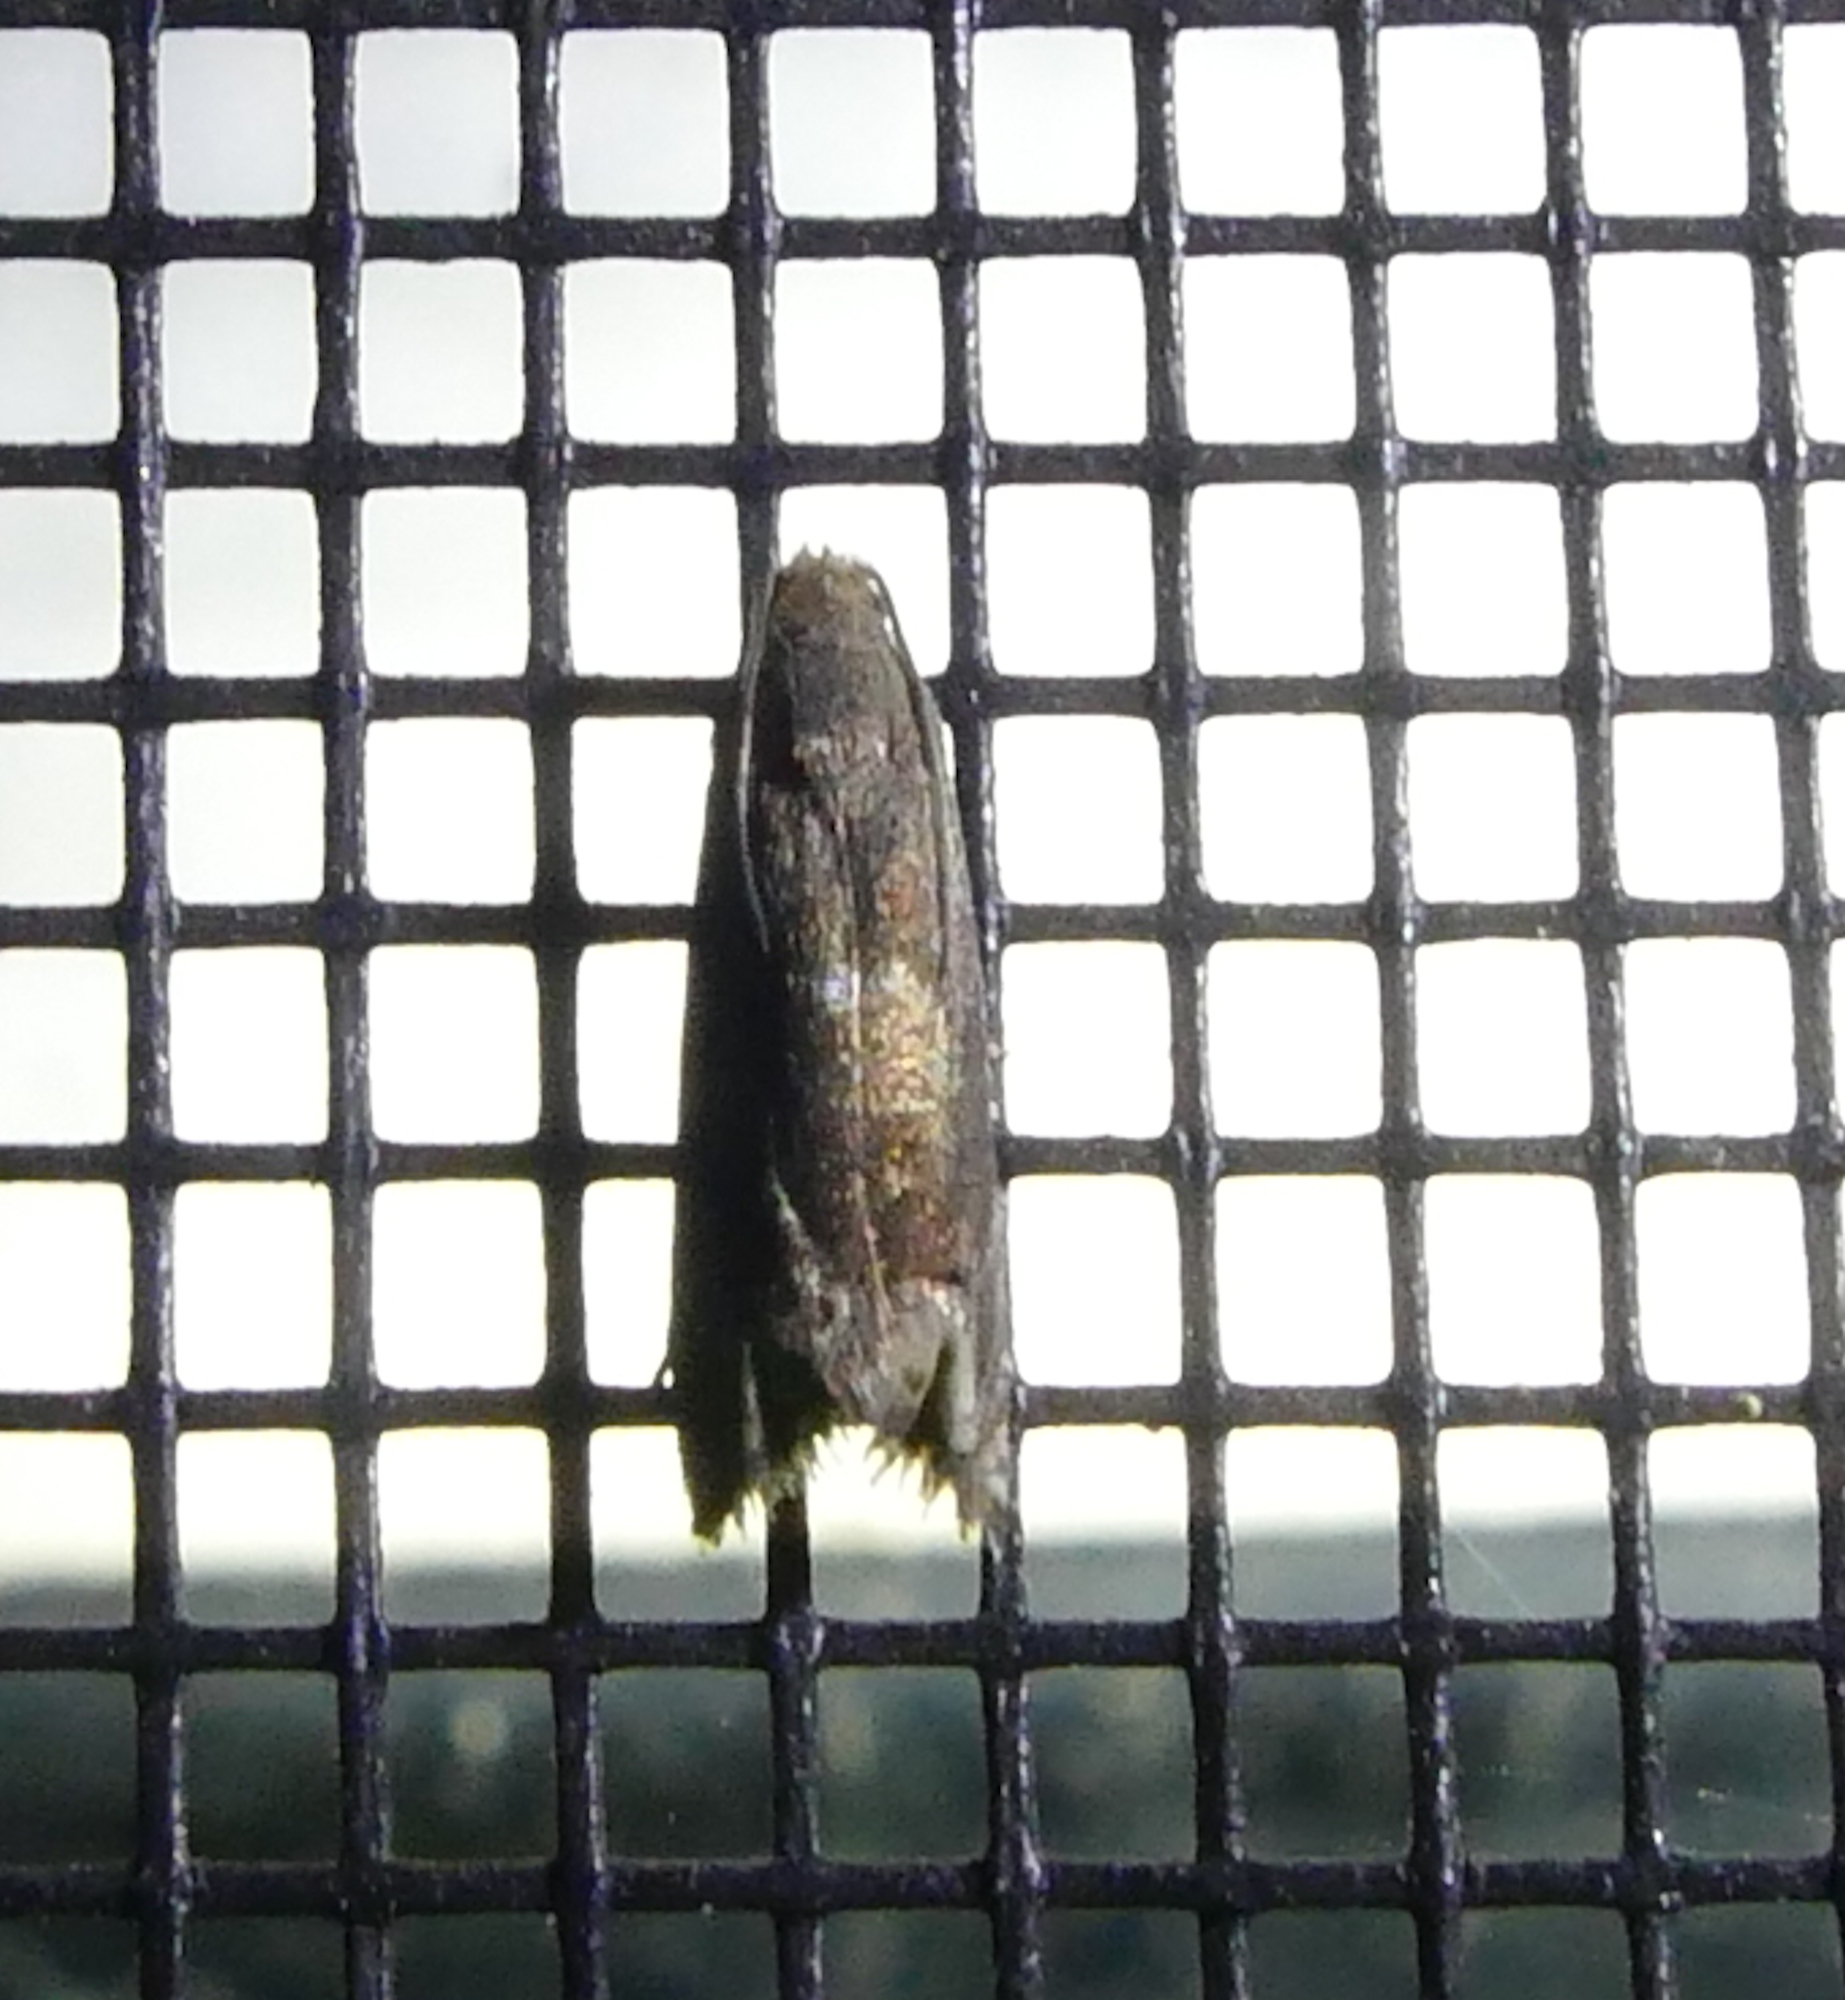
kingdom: Animalia
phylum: Arthropoda
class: Insecta
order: Lepidoptera
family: Tortricidae
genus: Epiblema
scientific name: Epiblema strenuana
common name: Ragweed borer moth
